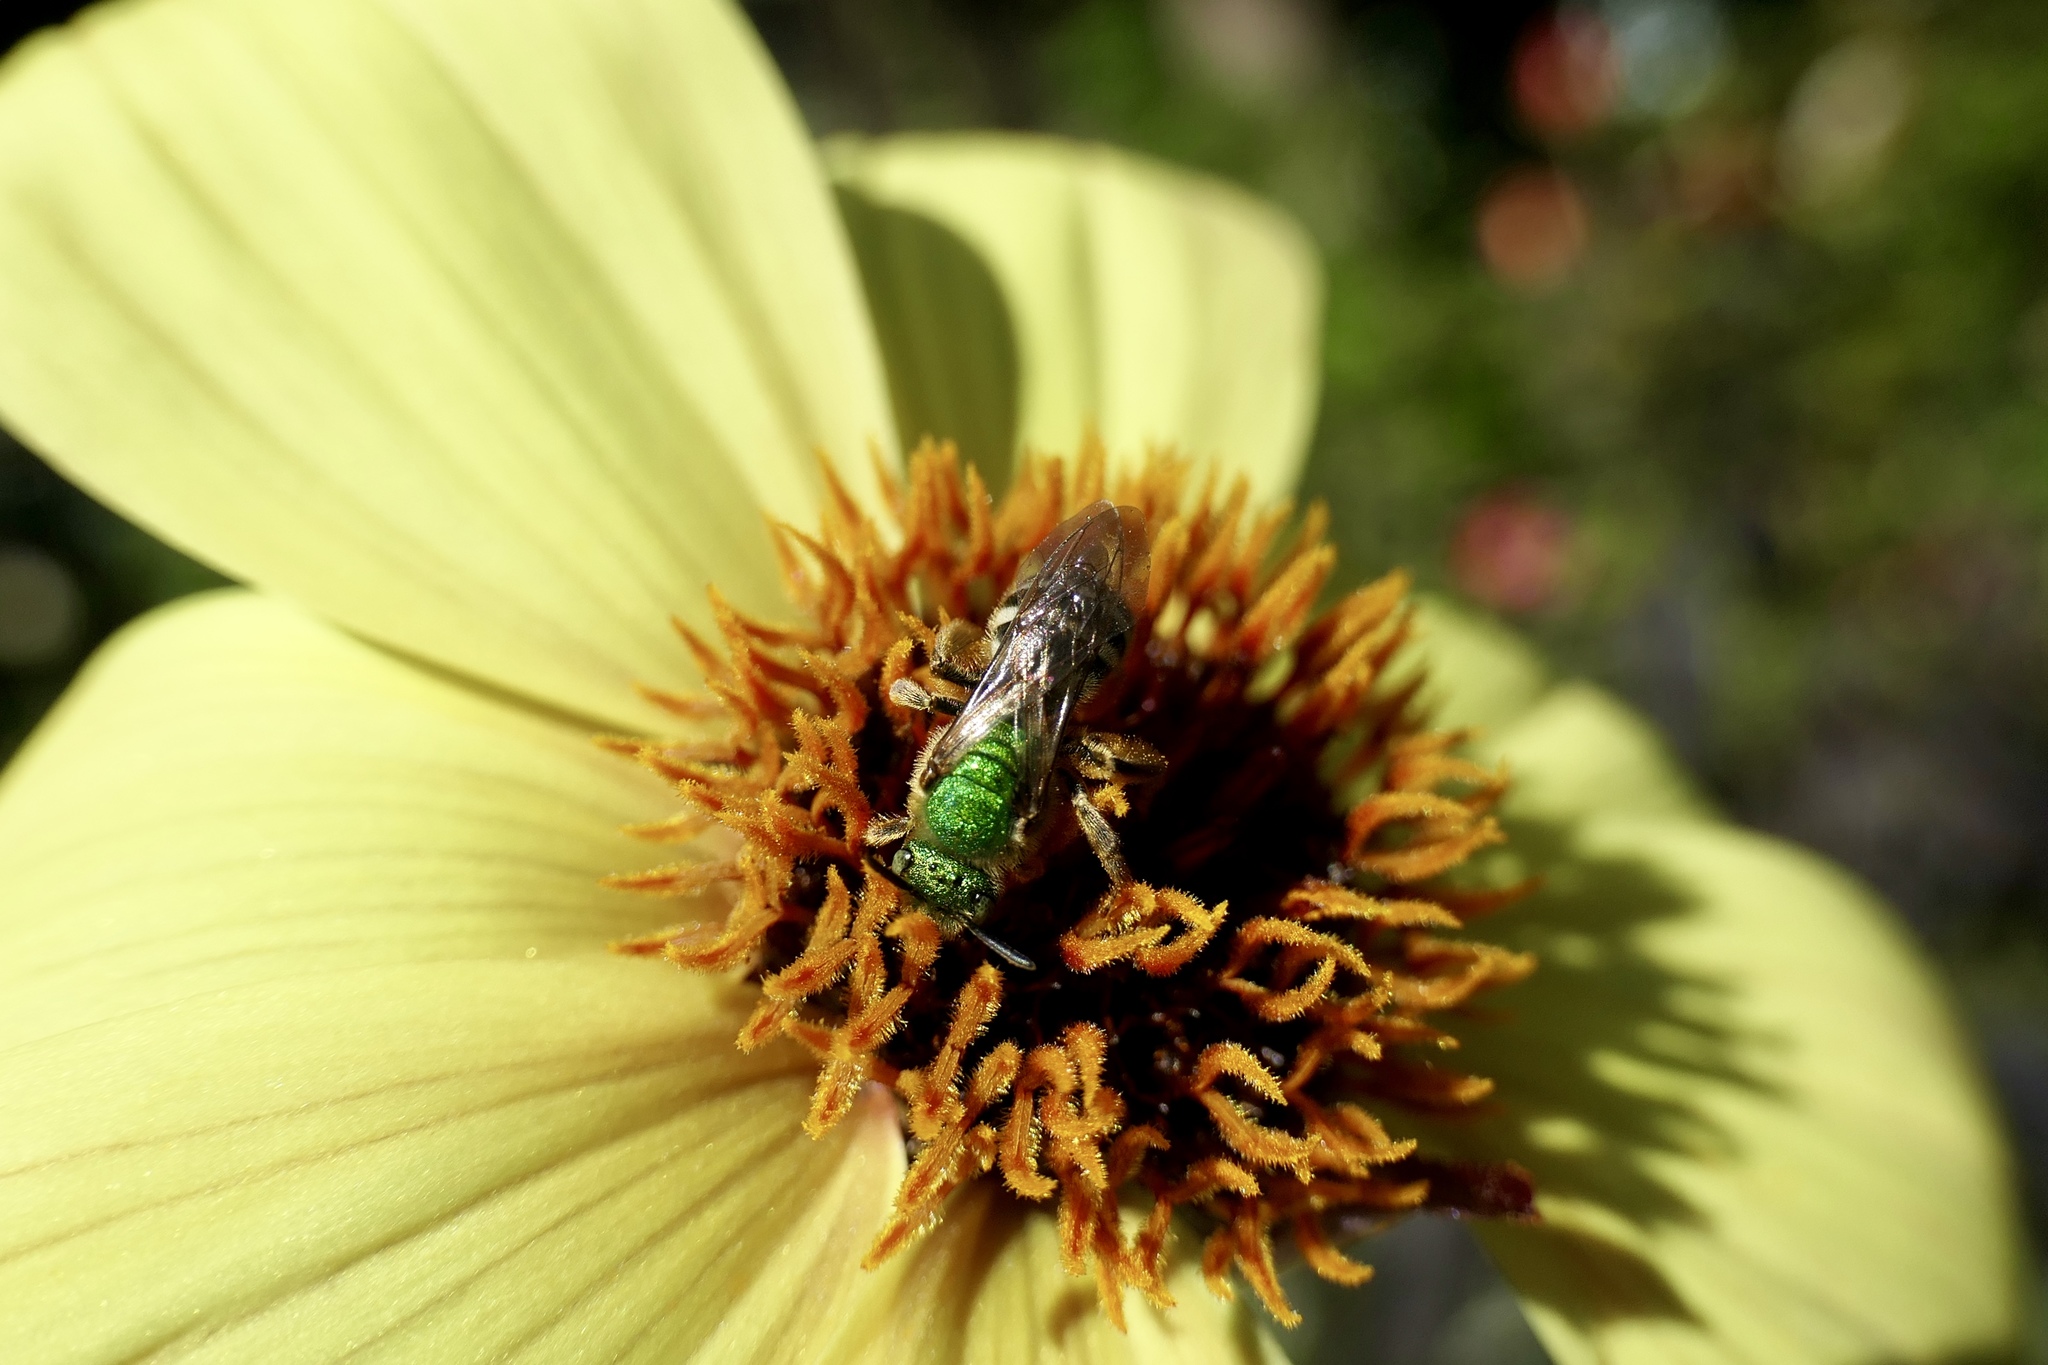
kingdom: Animalia
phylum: Arthropoda
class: Insecta
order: Hymenoptera
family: Halictidae
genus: Agapostemon
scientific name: Agapostemon virescens
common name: Bicolored striped sweat bee
